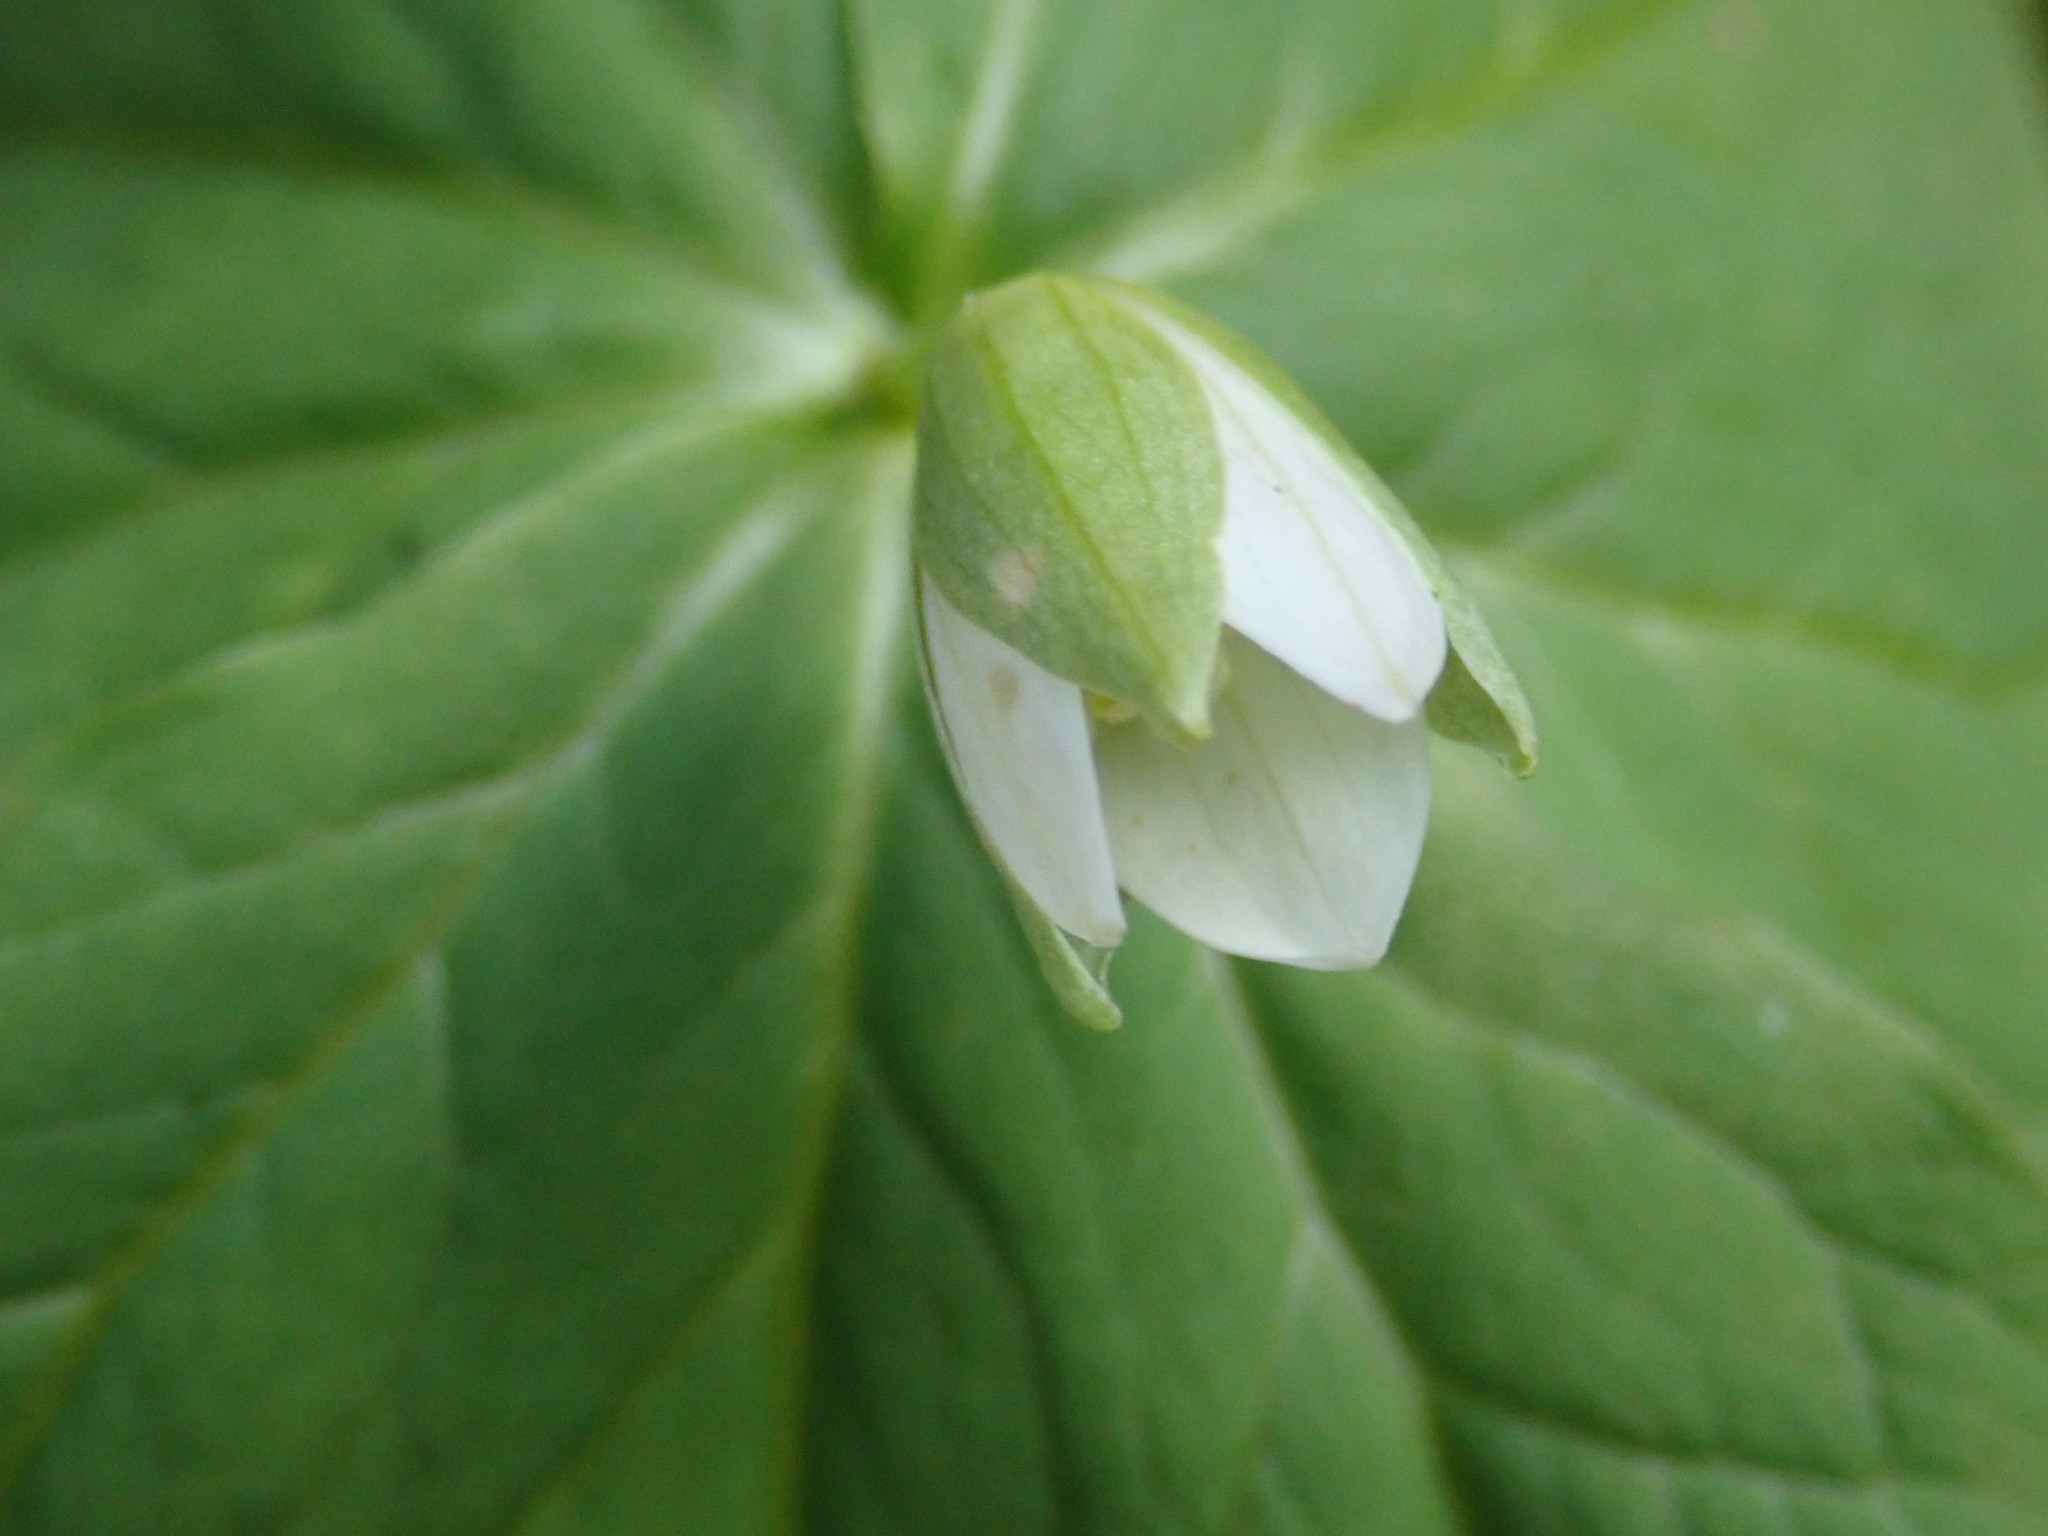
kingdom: Plantae
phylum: Tracheophyta
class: Liliopsida
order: Liliales
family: Melanthiaceae
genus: Trillium
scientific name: Trillium tschonoskii
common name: A pearl on head
